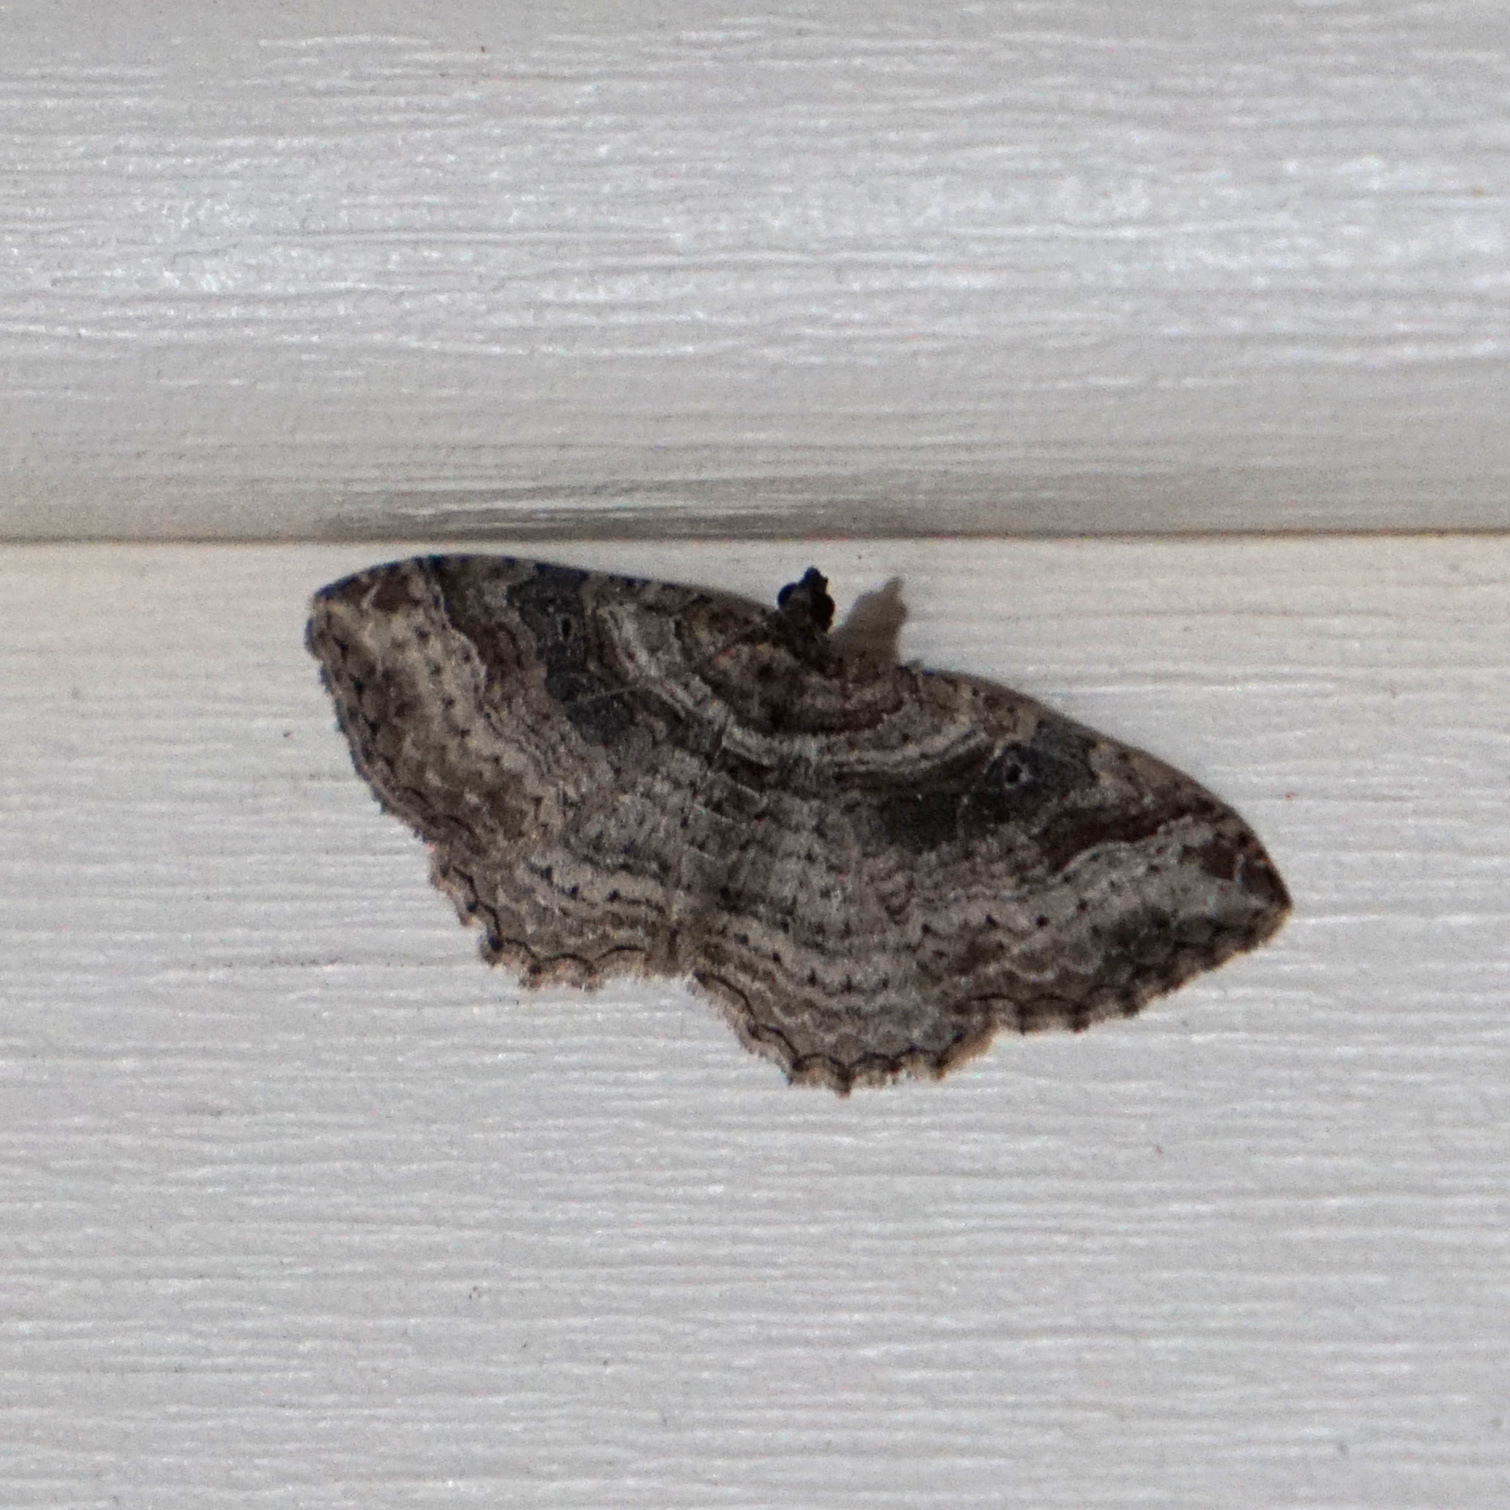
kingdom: Animalia
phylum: Arthropoda
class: Insecta
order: Lepidoptera
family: Geometridae
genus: Costaconvexa
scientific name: Costaconvexa centrostrigaria
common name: Bent-line carpet
